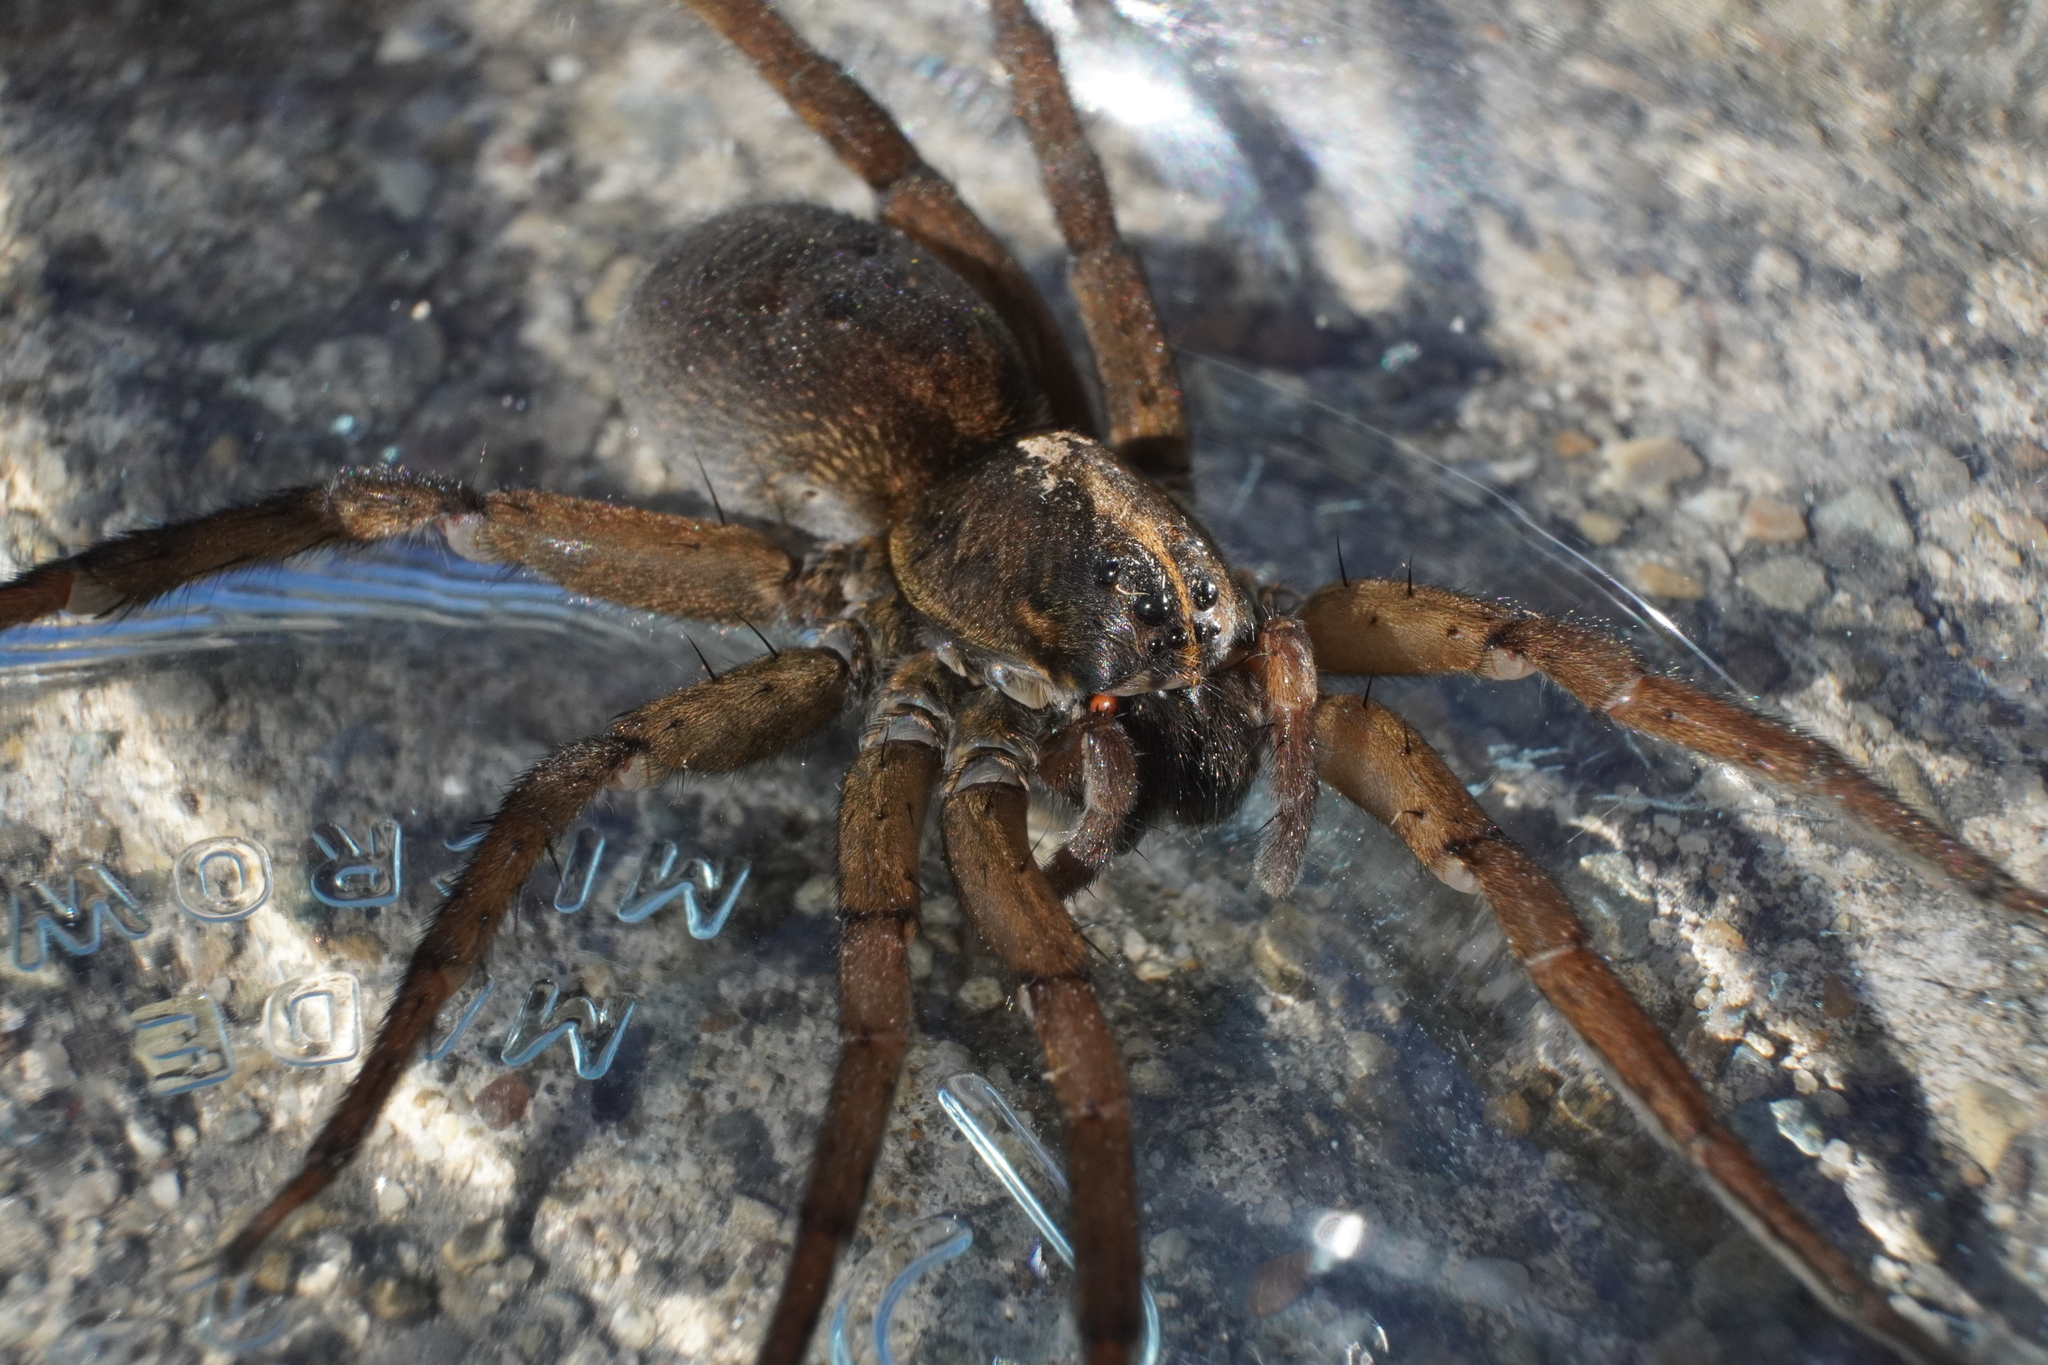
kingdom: Animalia
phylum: Arthropoda
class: Arachnida
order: Araneae
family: Lycosidae
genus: Tigrosa
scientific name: Tigrosa helluo
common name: Wetland giant wolf spider
